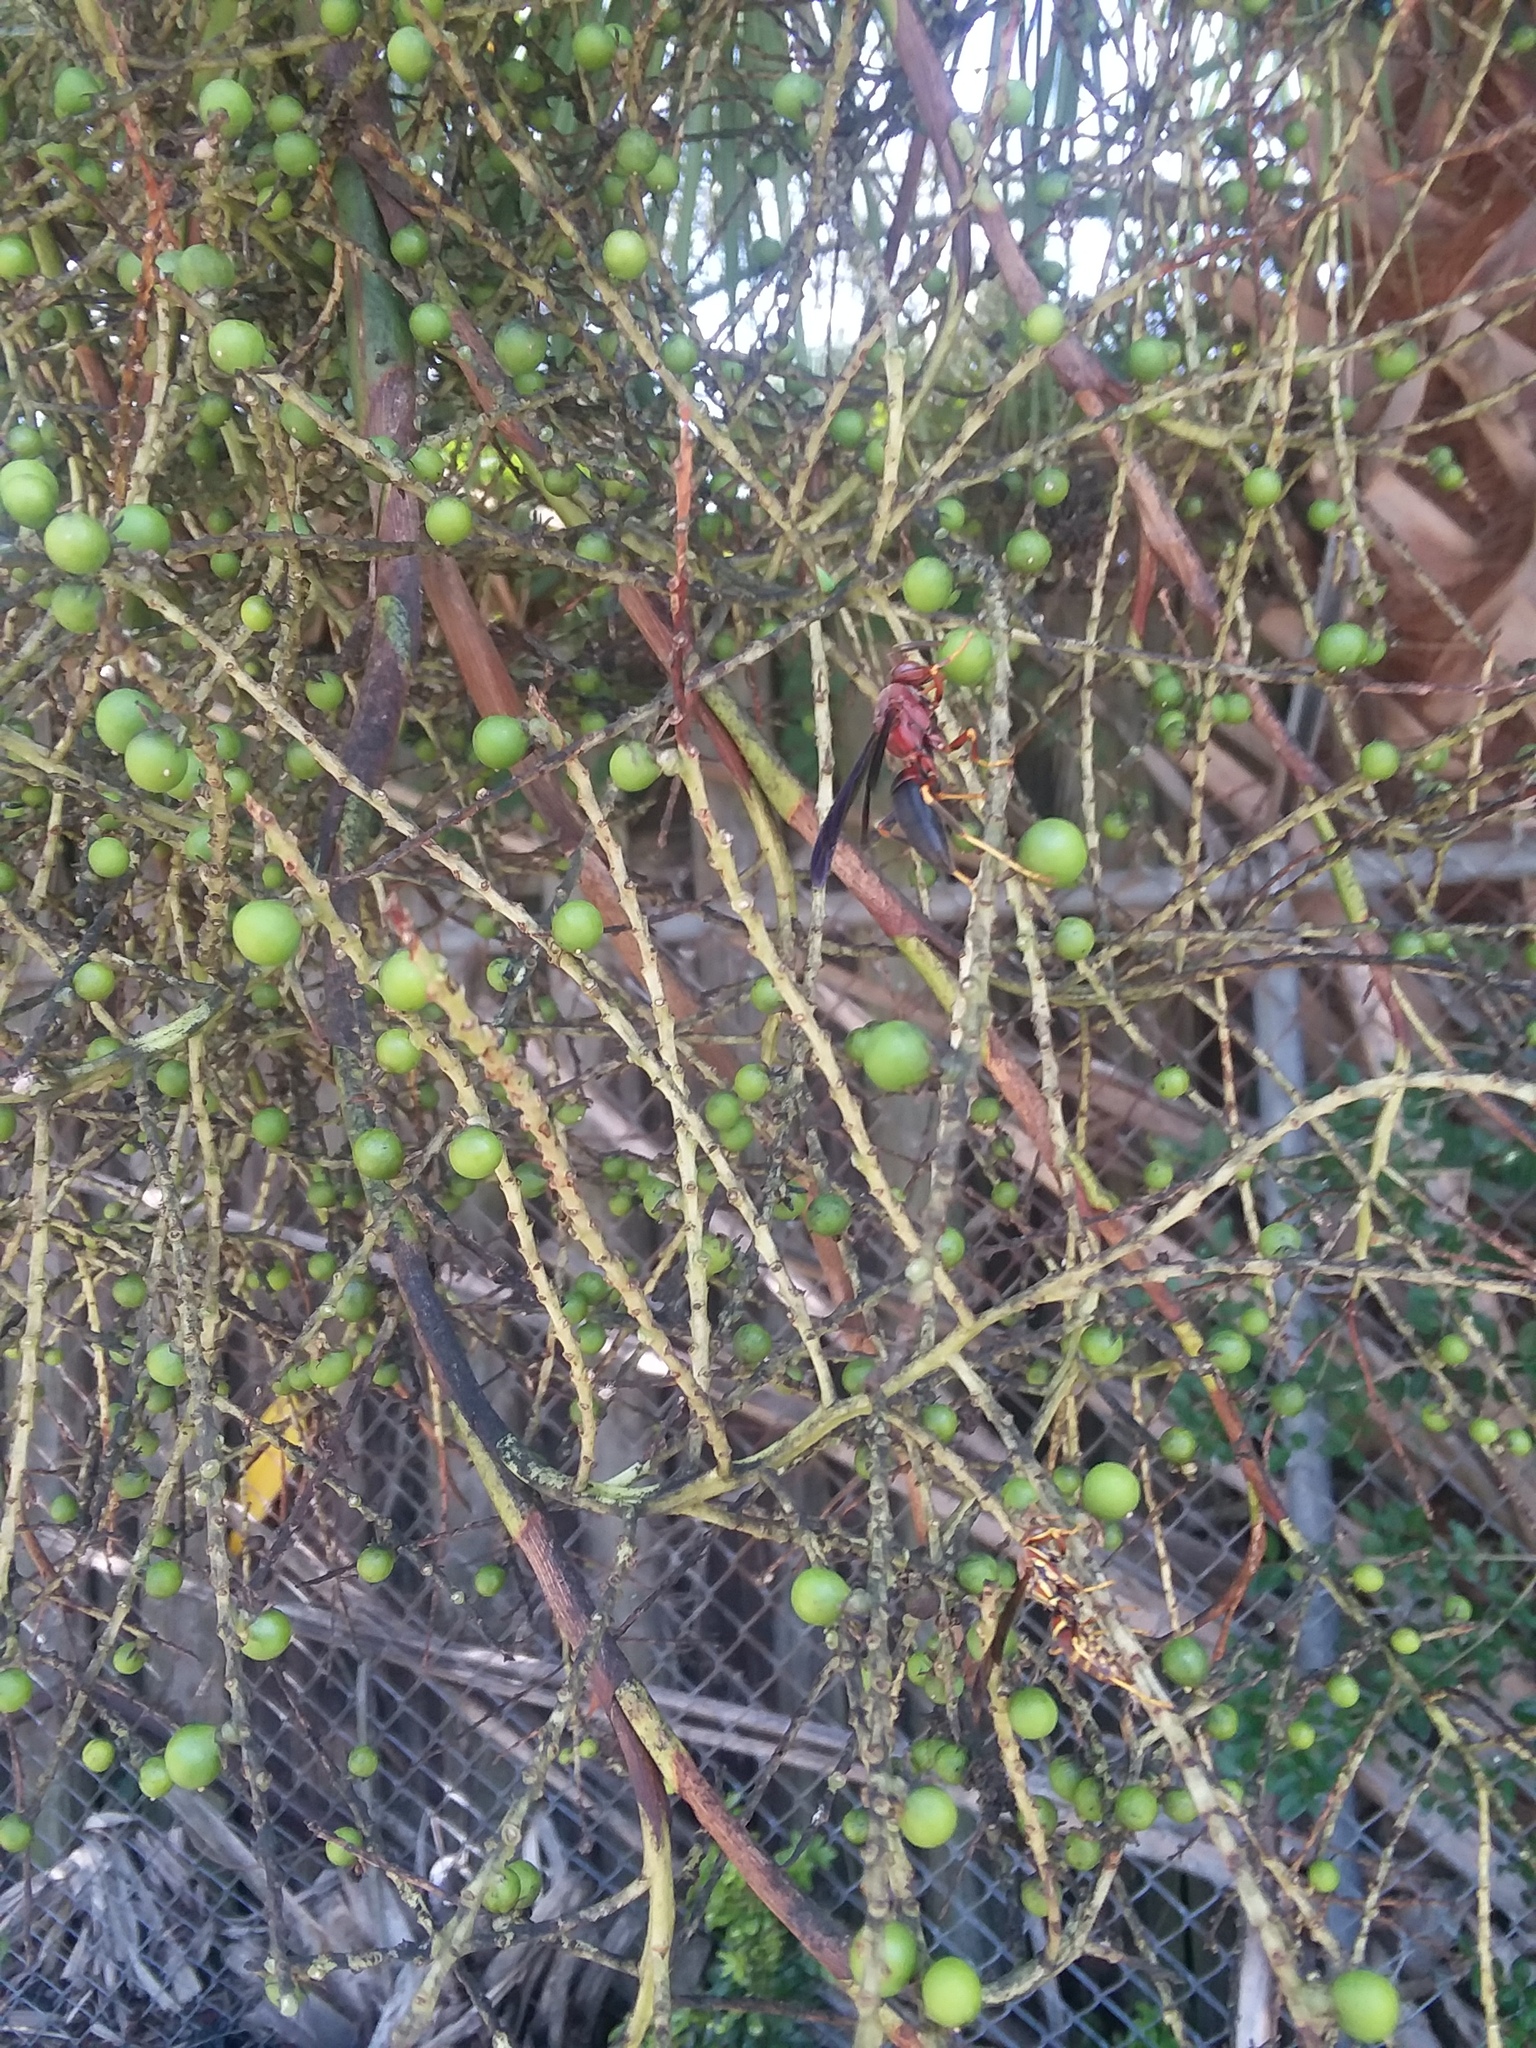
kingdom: Animalia
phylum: Arthropoda
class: Insecta
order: Hymenoptera
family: Eumenidae
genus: Polistes
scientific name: Polistes metricus
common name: Metric paper wasp
